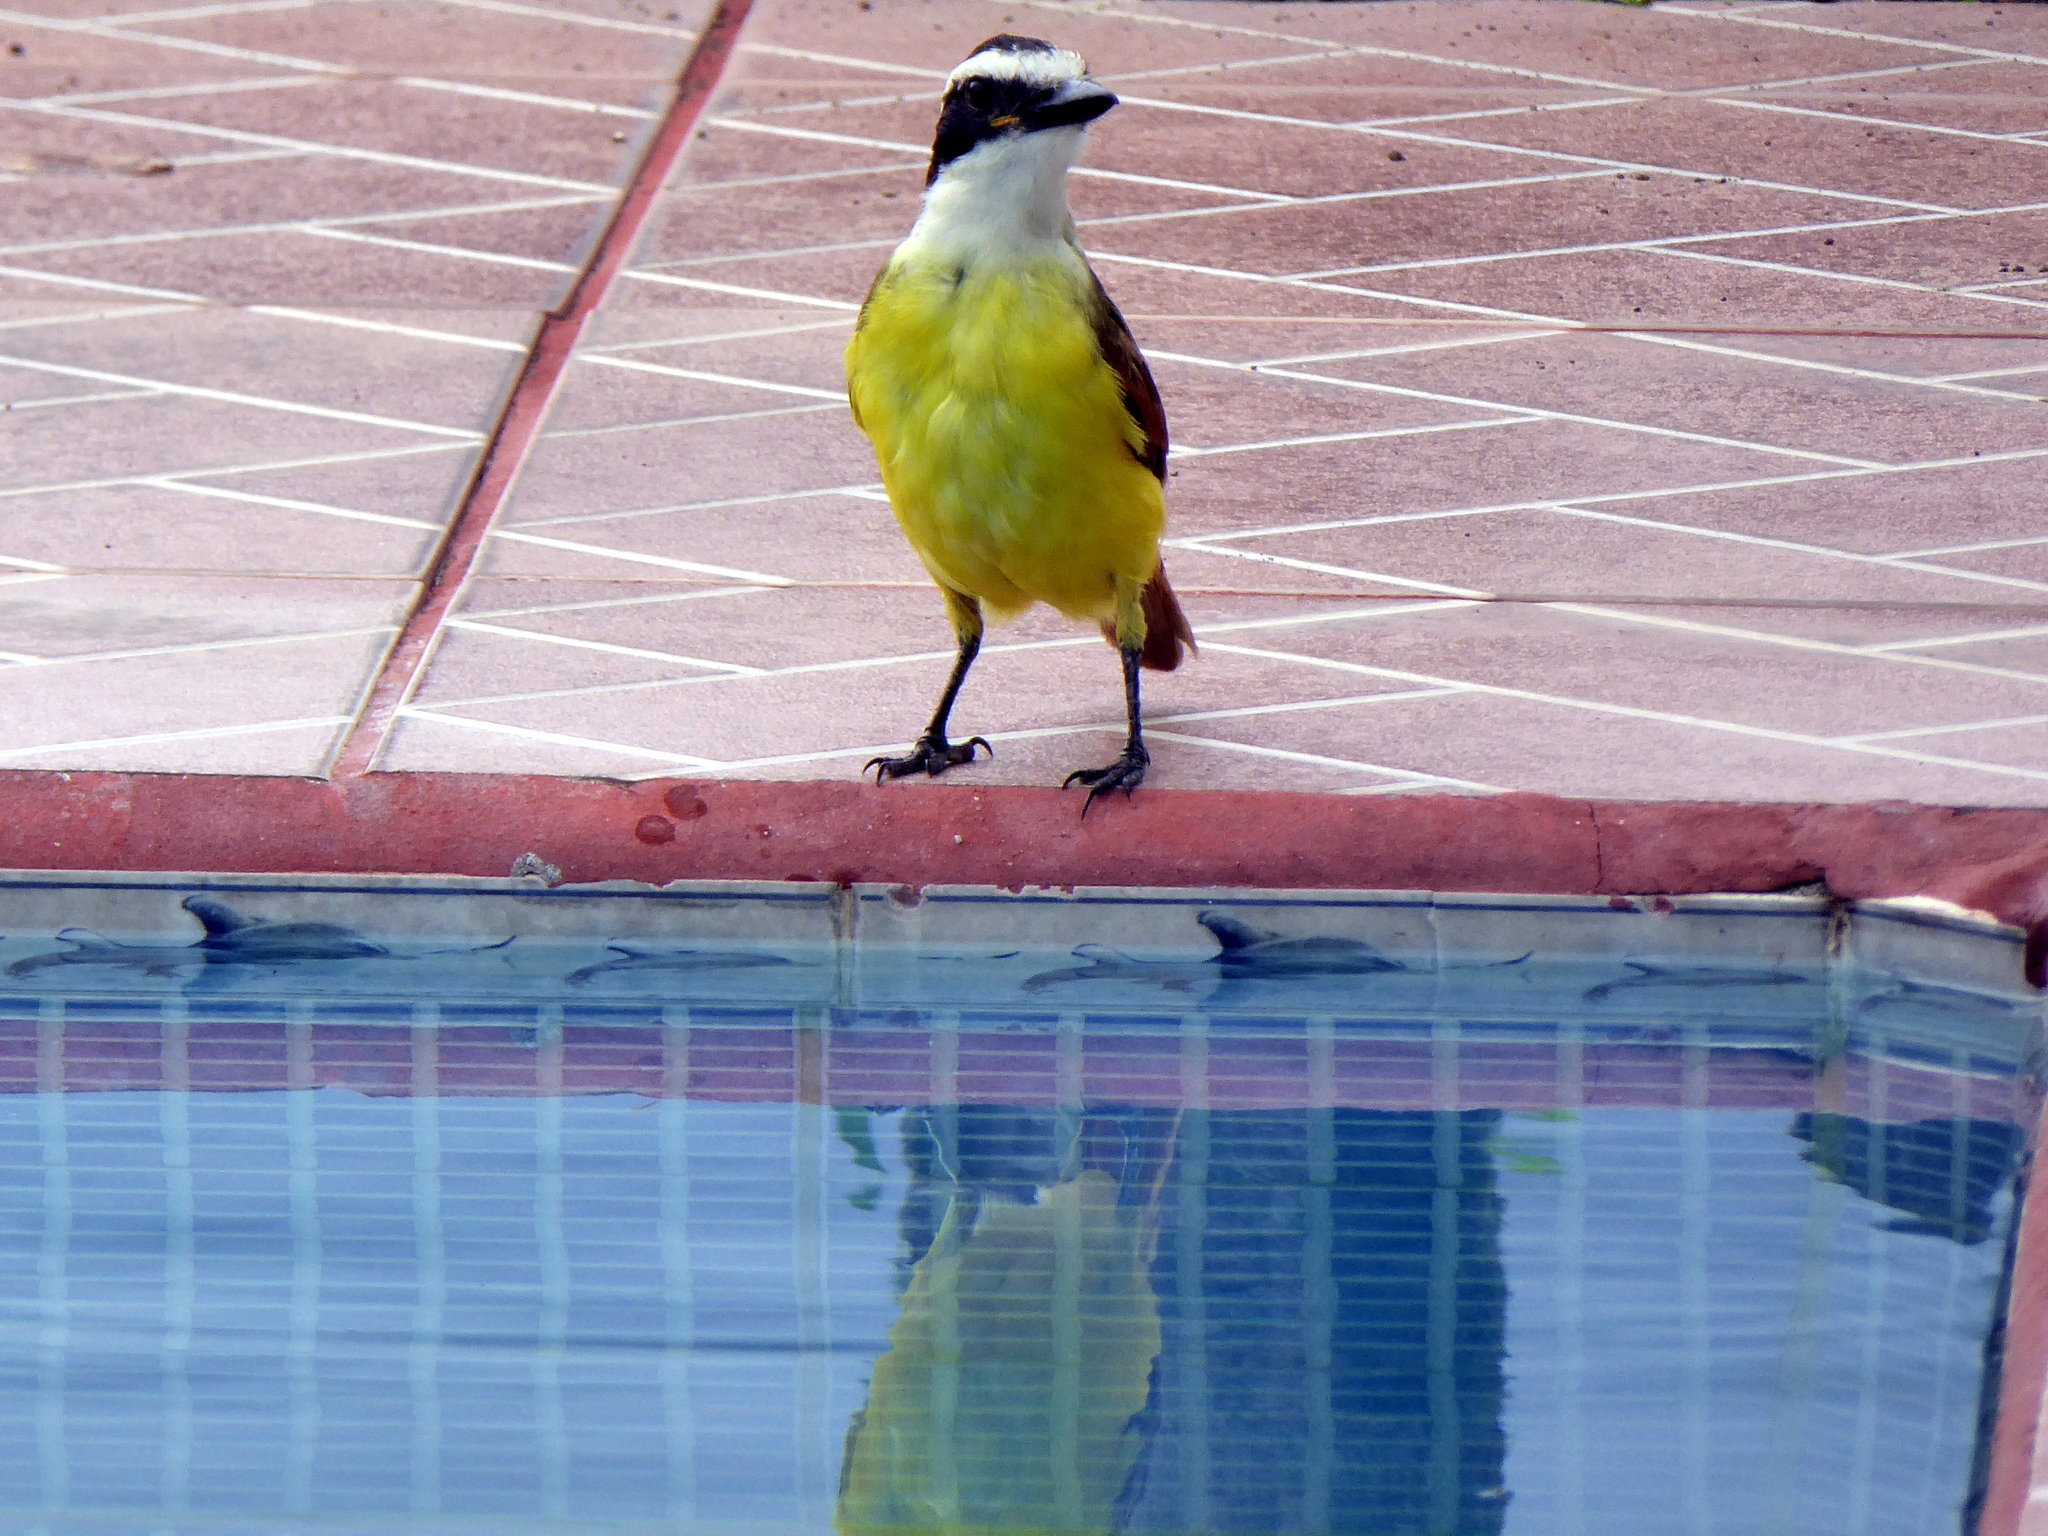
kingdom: Animalia
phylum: Chordata
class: Aves
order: Passeriformes
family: Tyrannidae
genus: Pitangus
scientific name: Pitangus sulphuratus
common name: Great kiskadee
